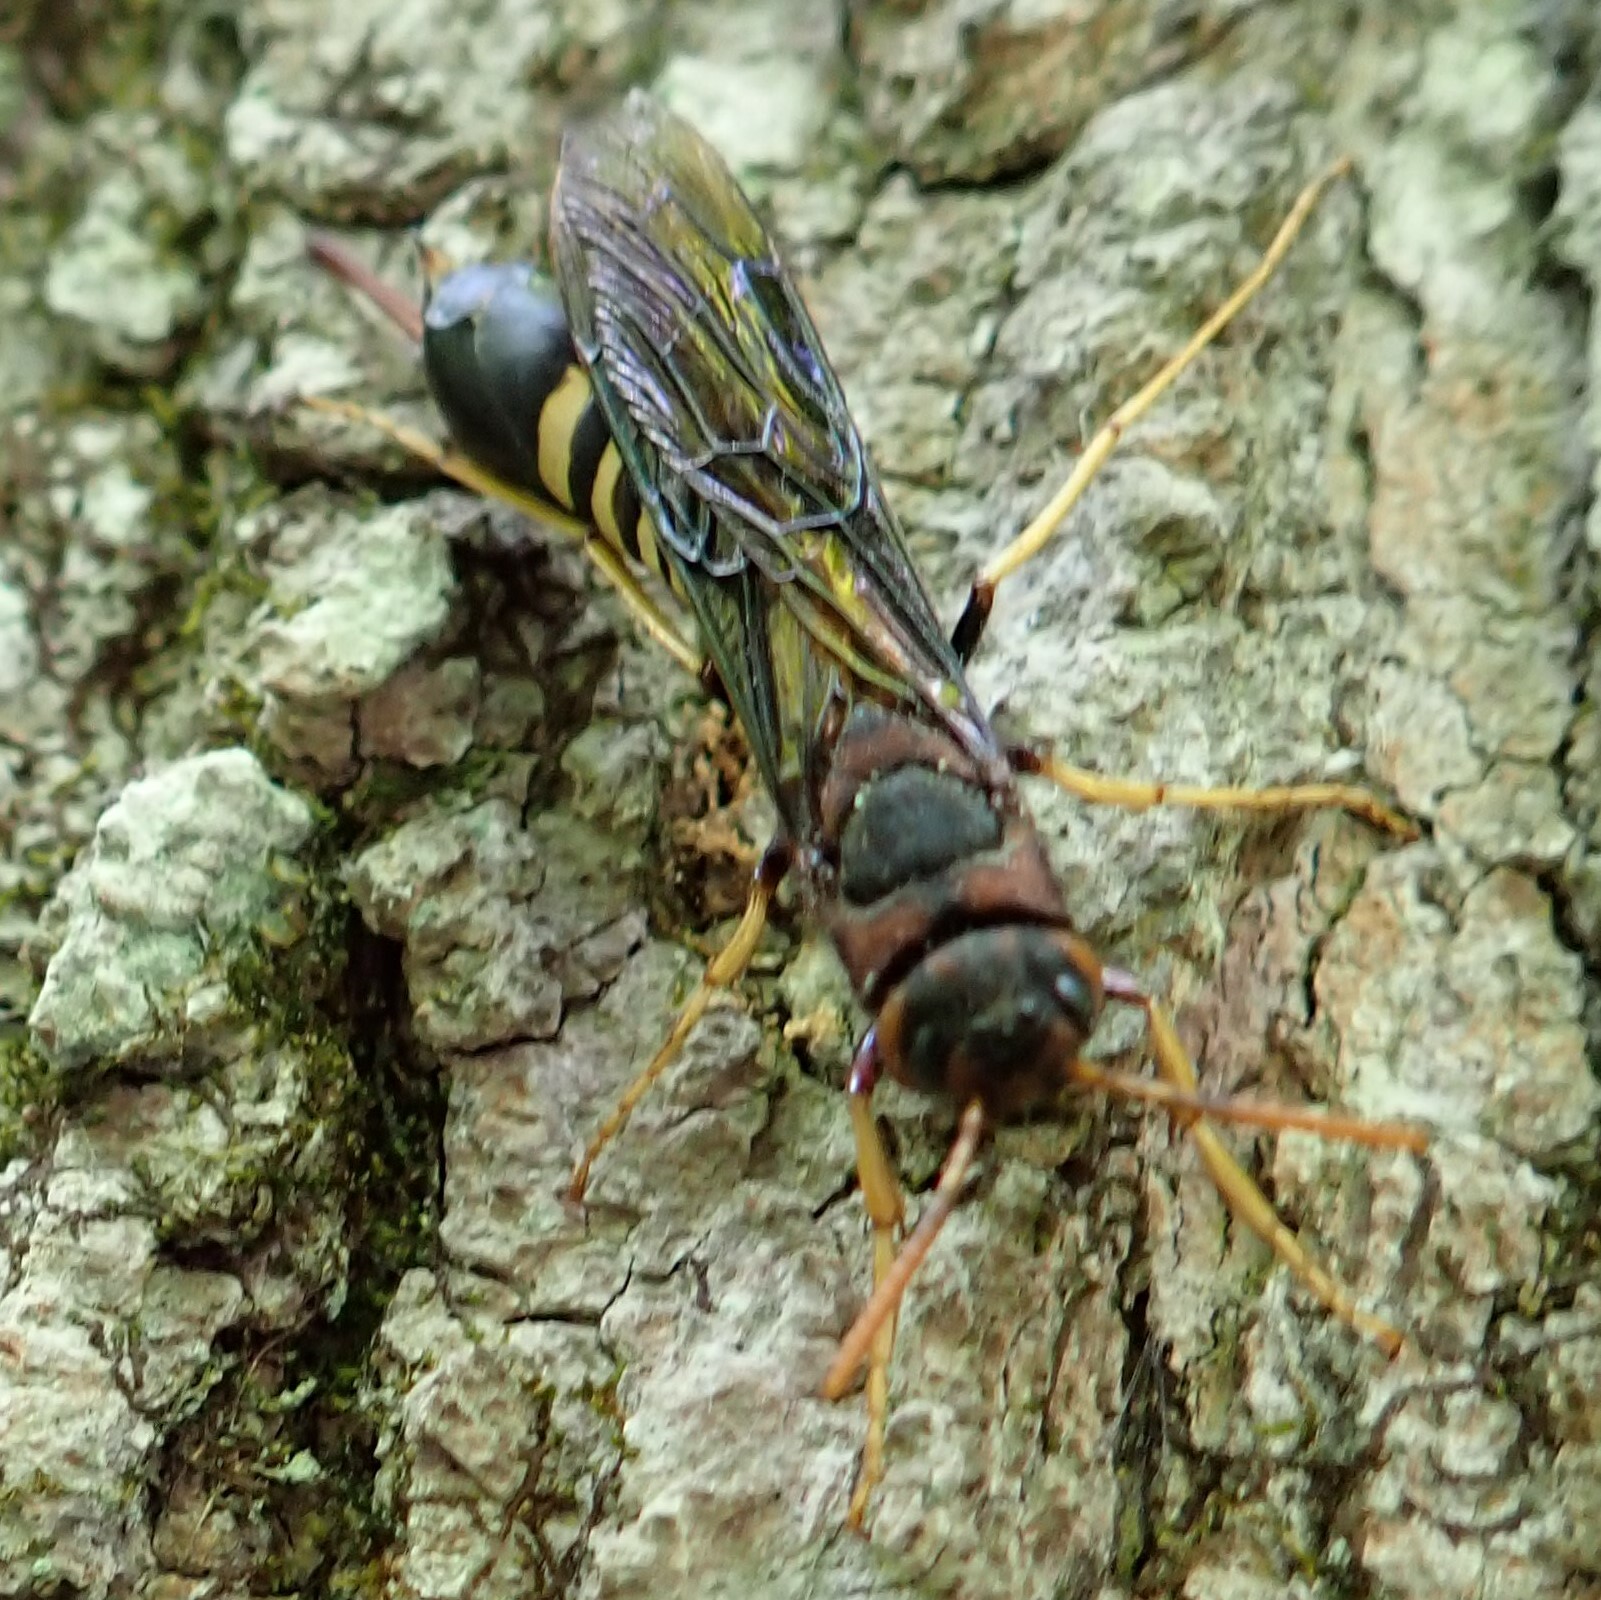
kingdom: Animalia
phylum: Arthropoda
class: Insecta
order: Hymenoptera
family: Siricidae
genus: Tremex
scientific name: Tremex columba
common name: Wasp
